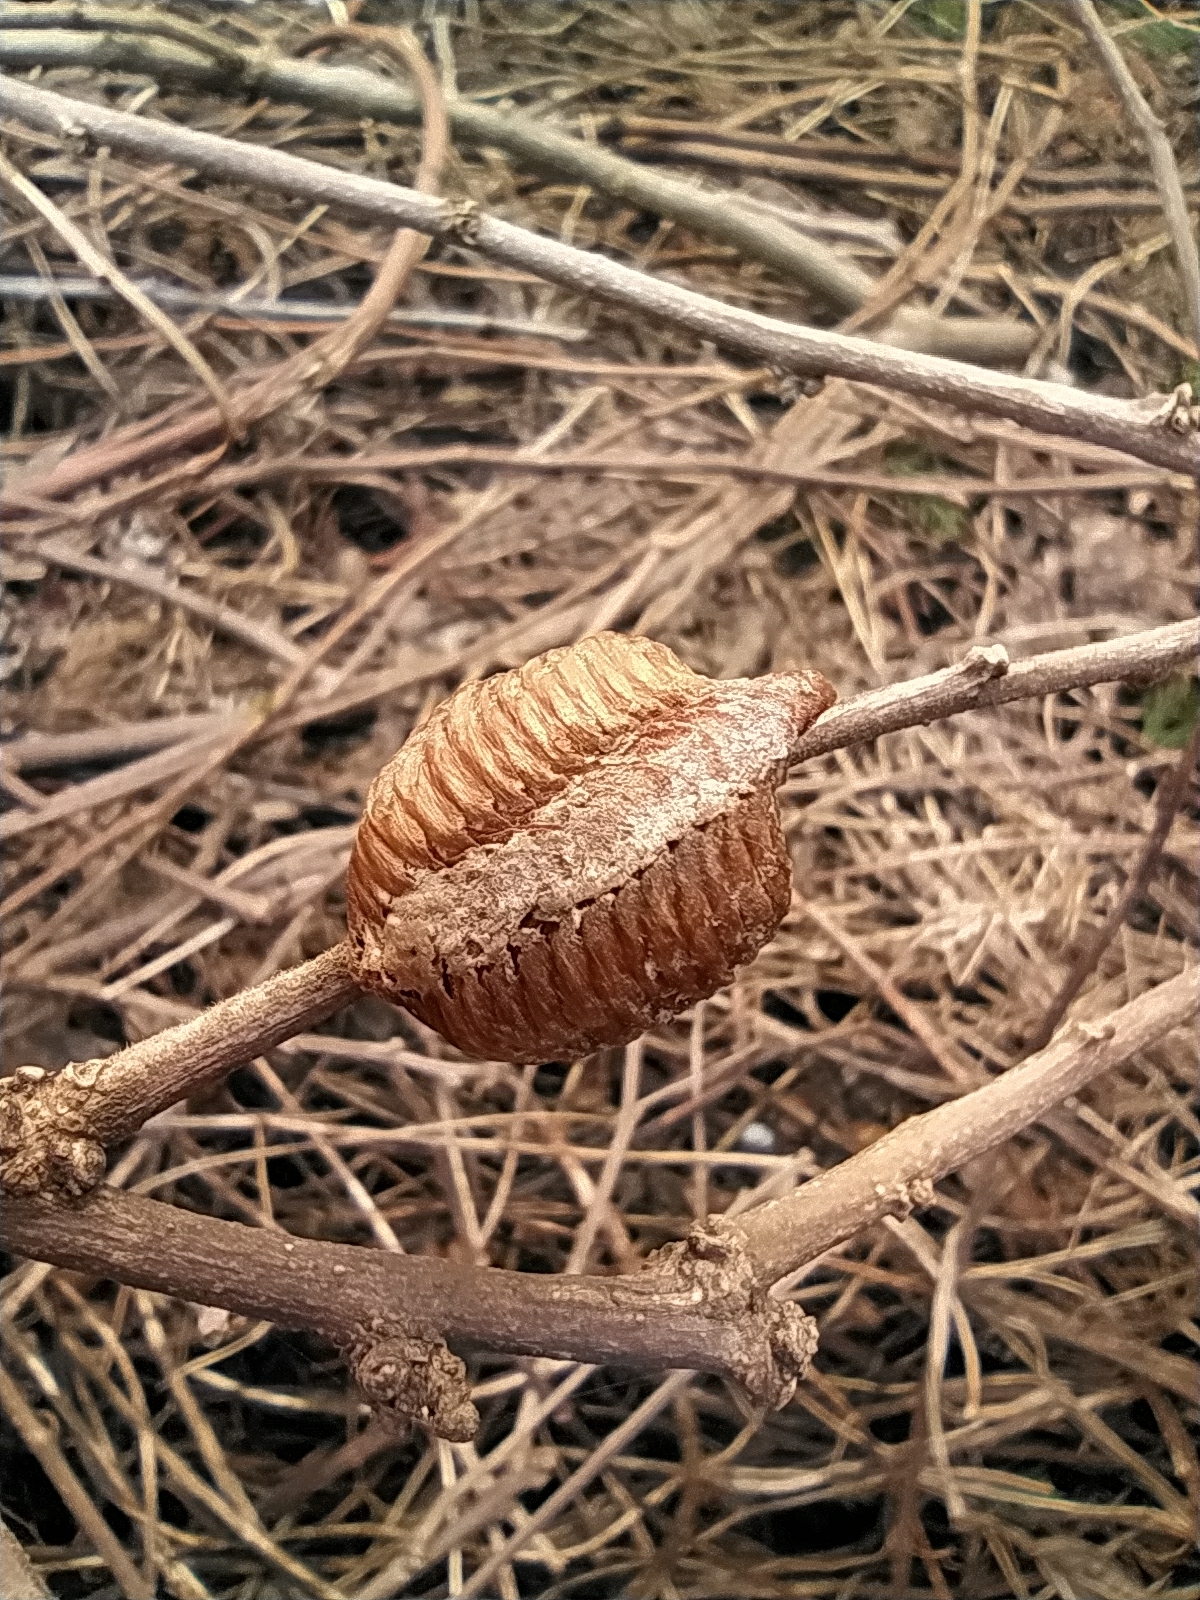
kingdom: Animalia
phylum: Arthropoda
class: Insecta
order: Mantodea
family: Mantidae
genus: Hierodula
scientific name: Hierodula transcaucasica
